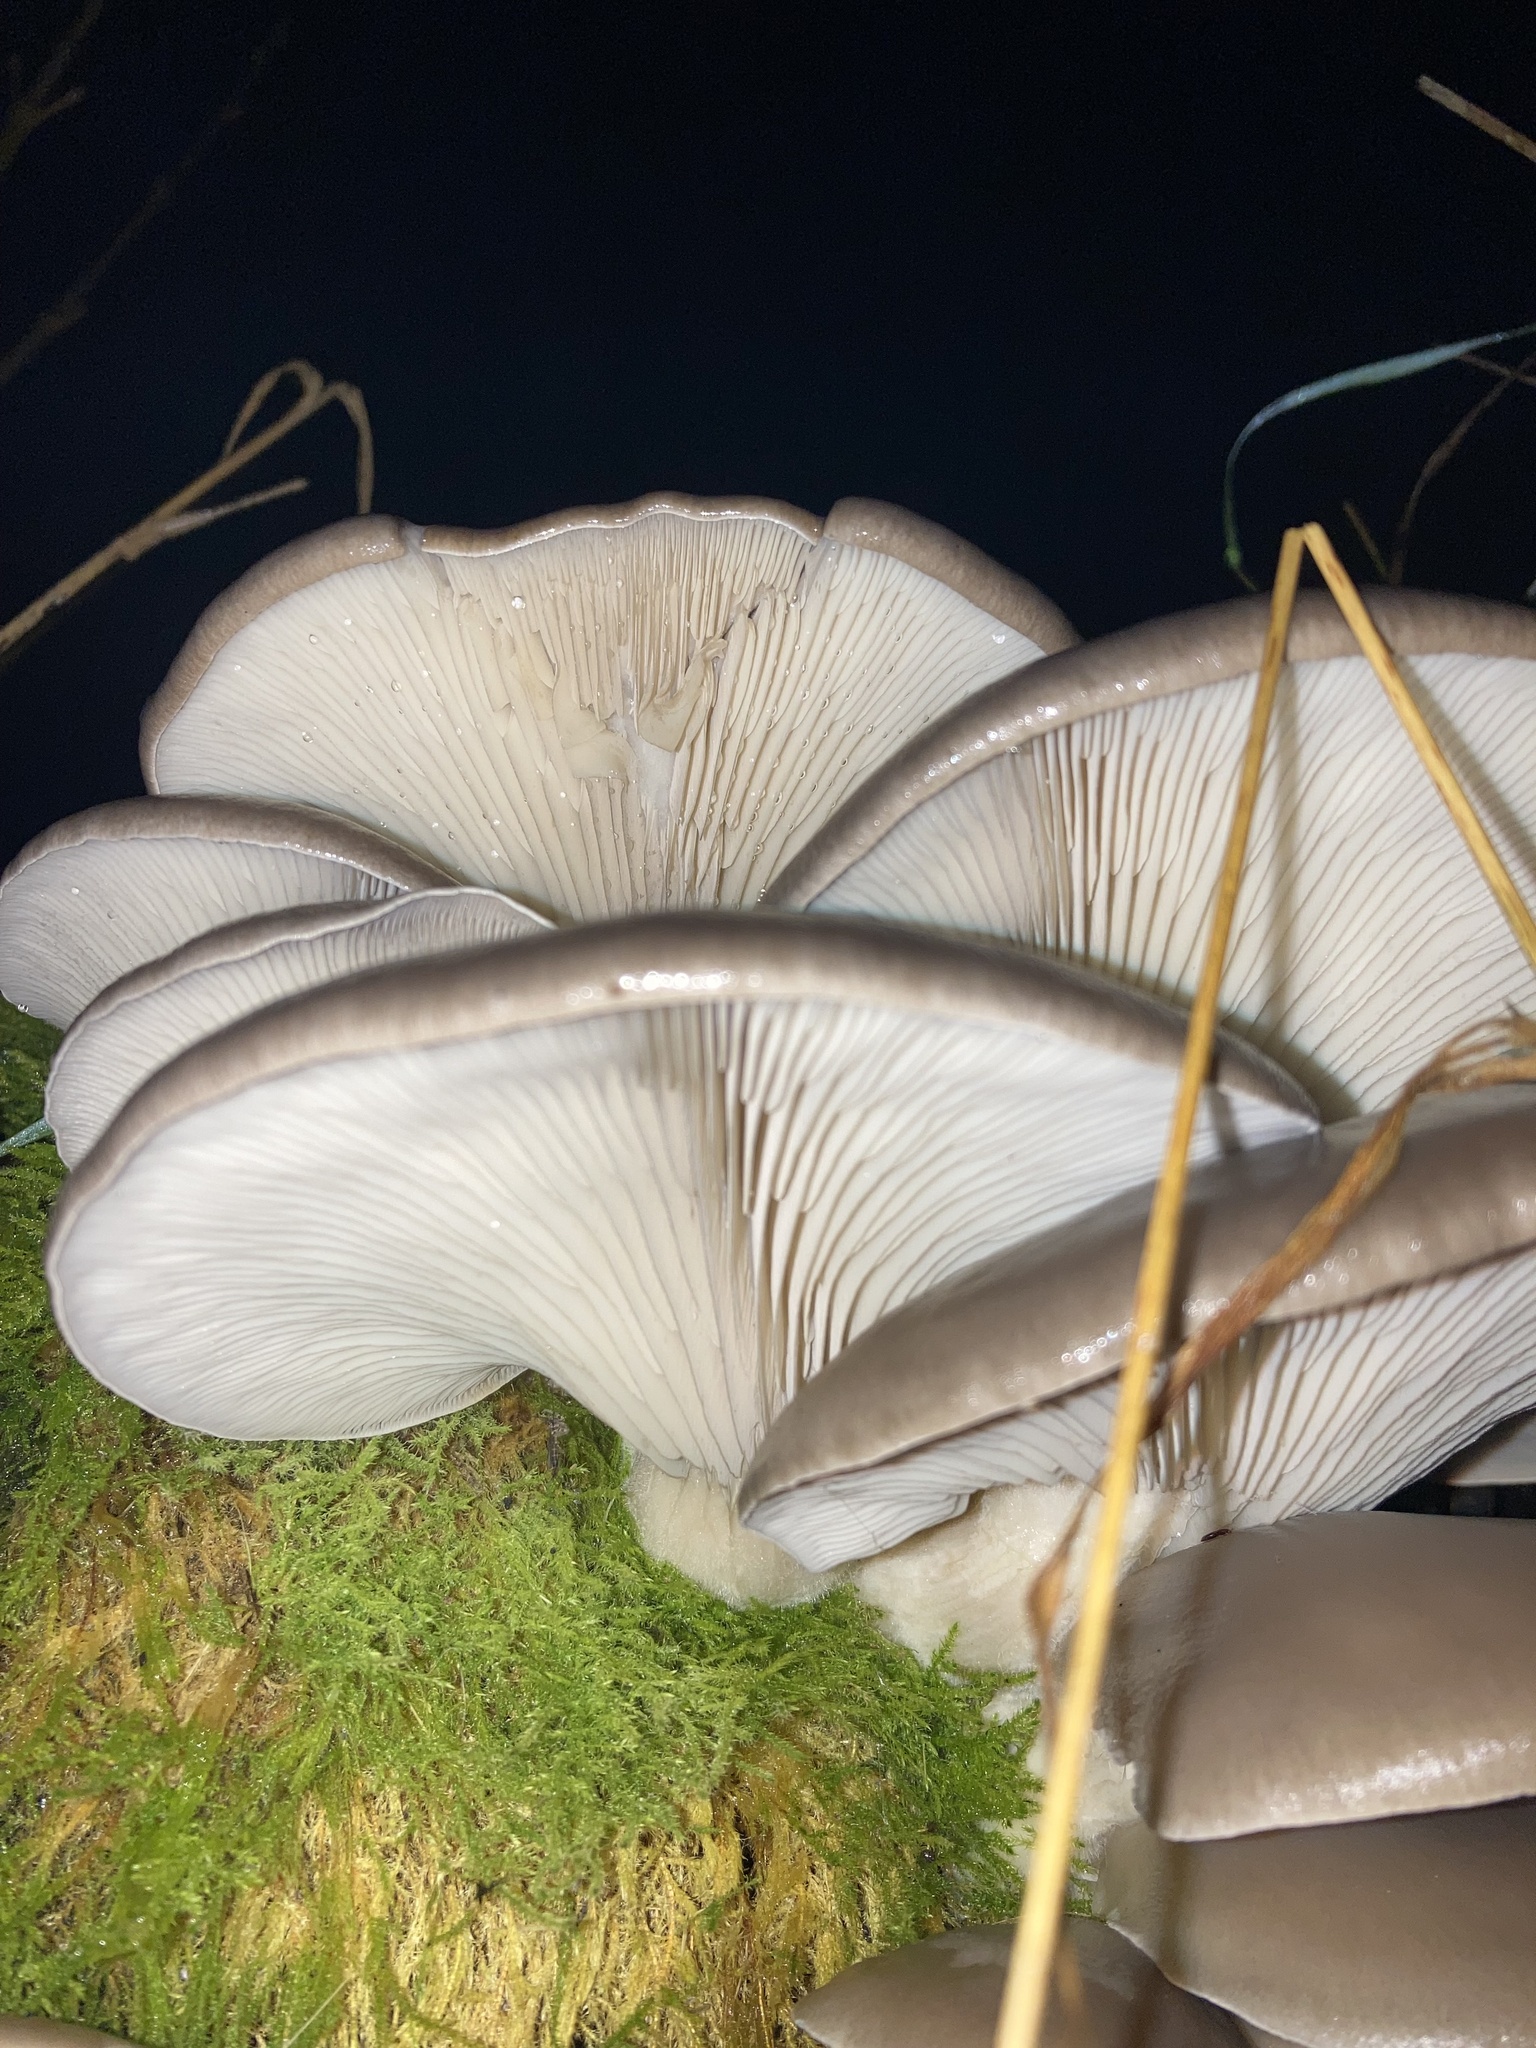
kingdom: Fungi
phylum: Basidiomycota
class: Agaricomycetes
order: Agaricales
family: Pleurotaceae
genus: Pleurotus
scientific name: Pleurotus ostreatus
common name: Oyster mushroom
